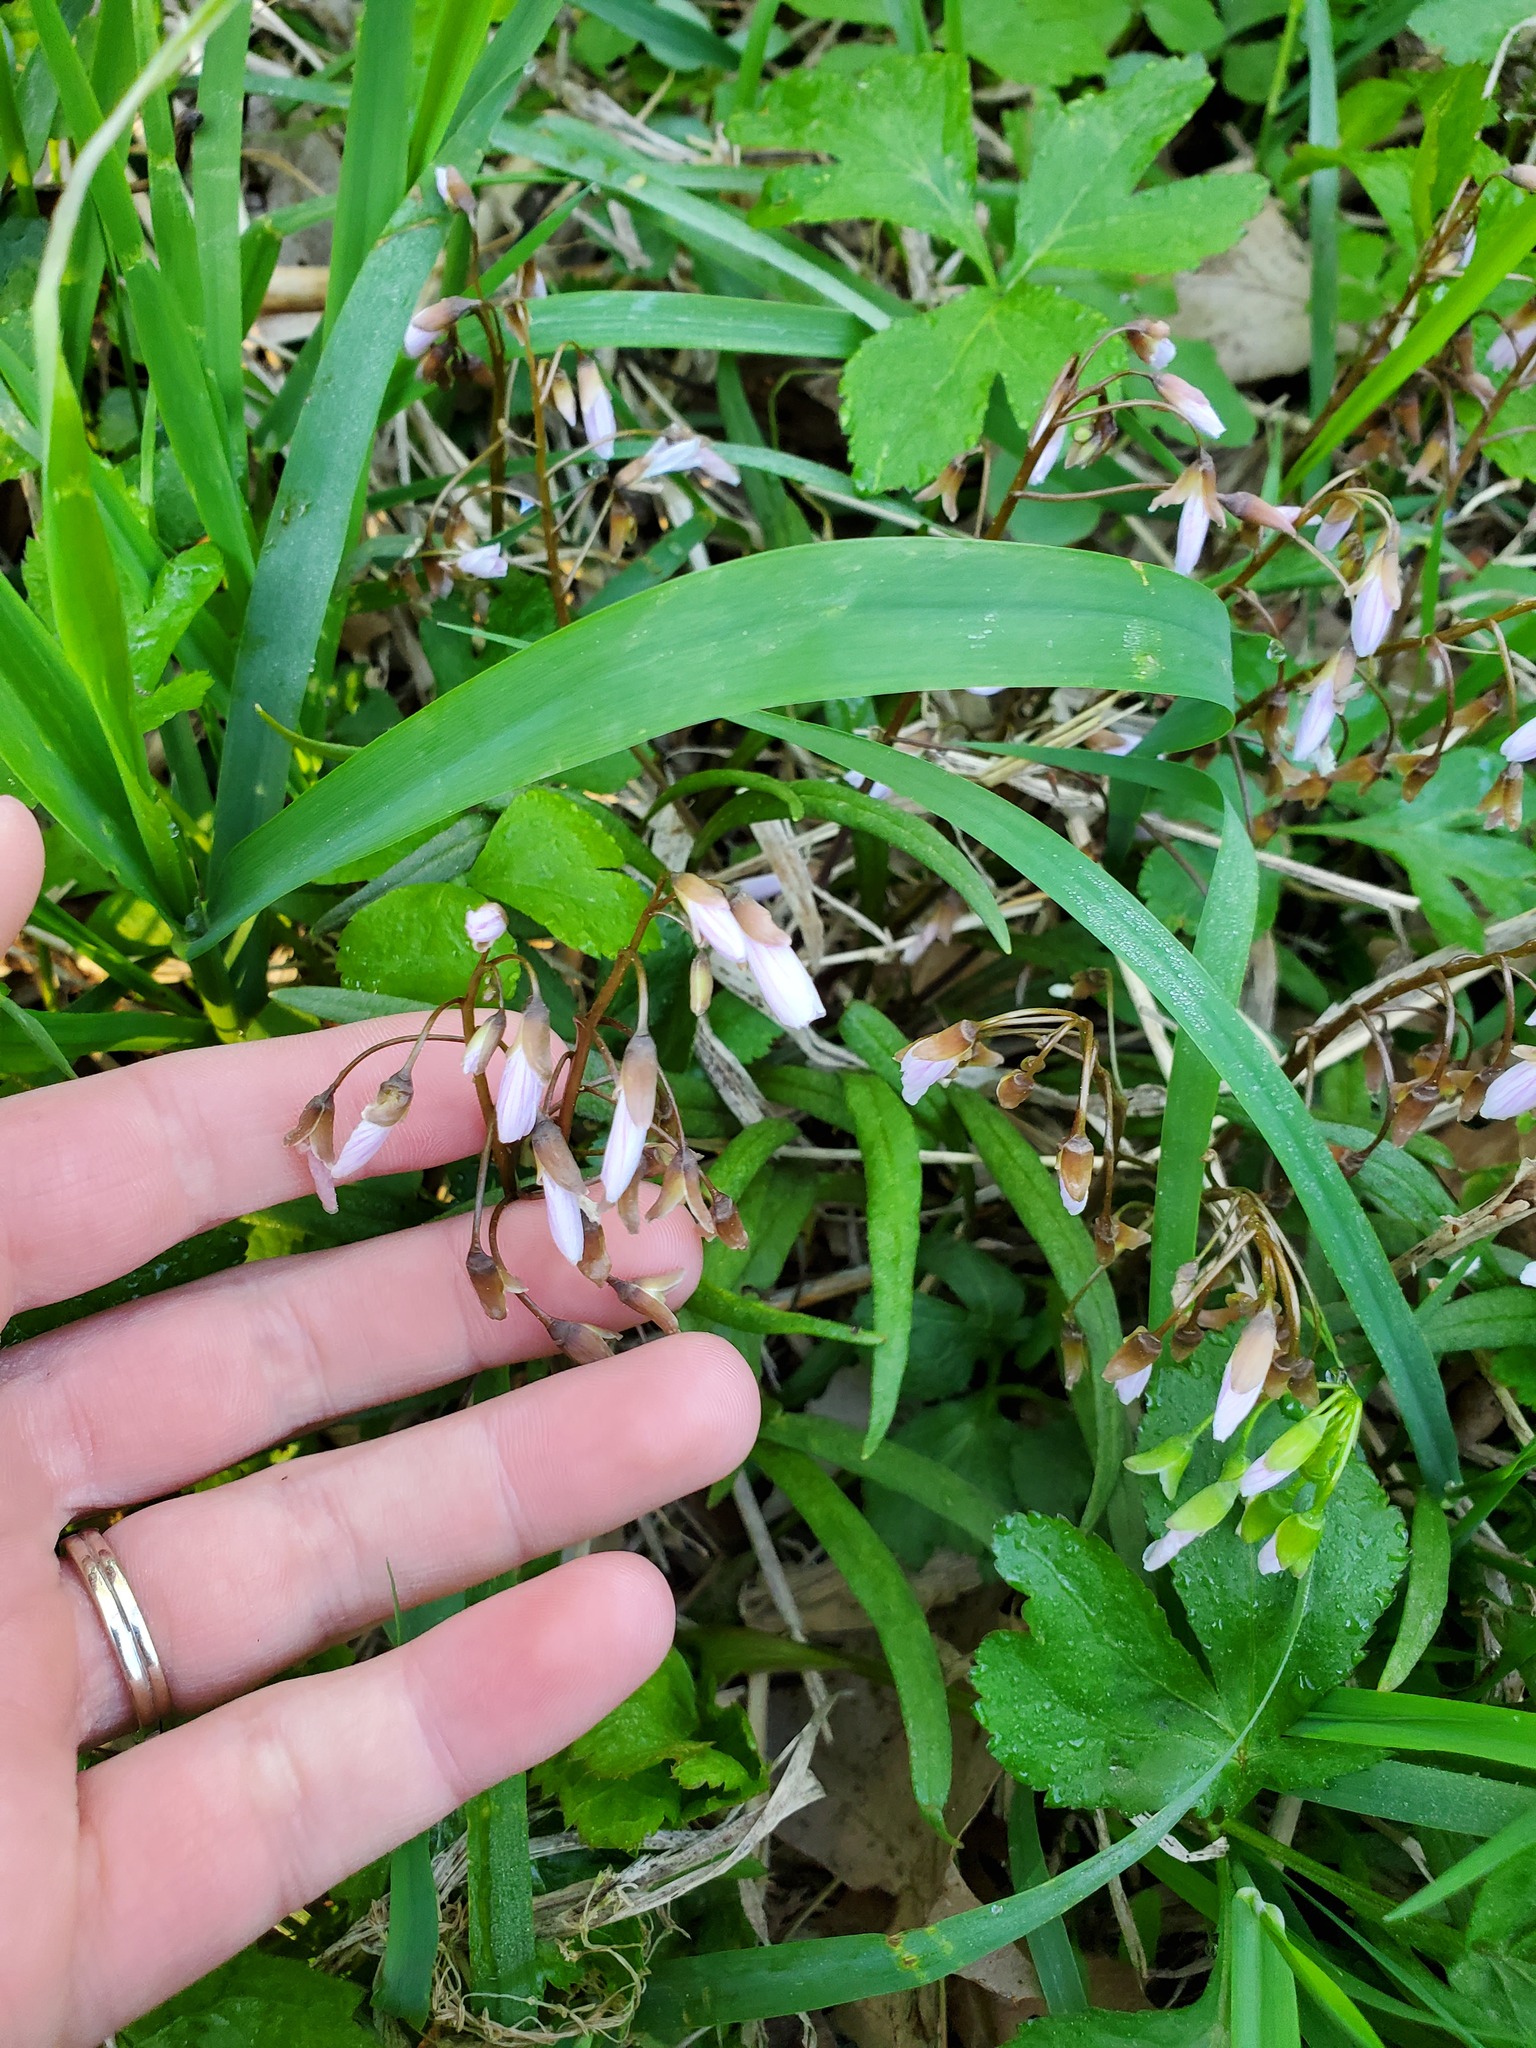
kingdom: Plantae
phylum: Tracheophyta
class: Magnoliopsida
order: Caryophyllales
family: Montiaceae
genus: Claytonia
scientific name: Claytonia virginica
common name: Virginia springbeauty
